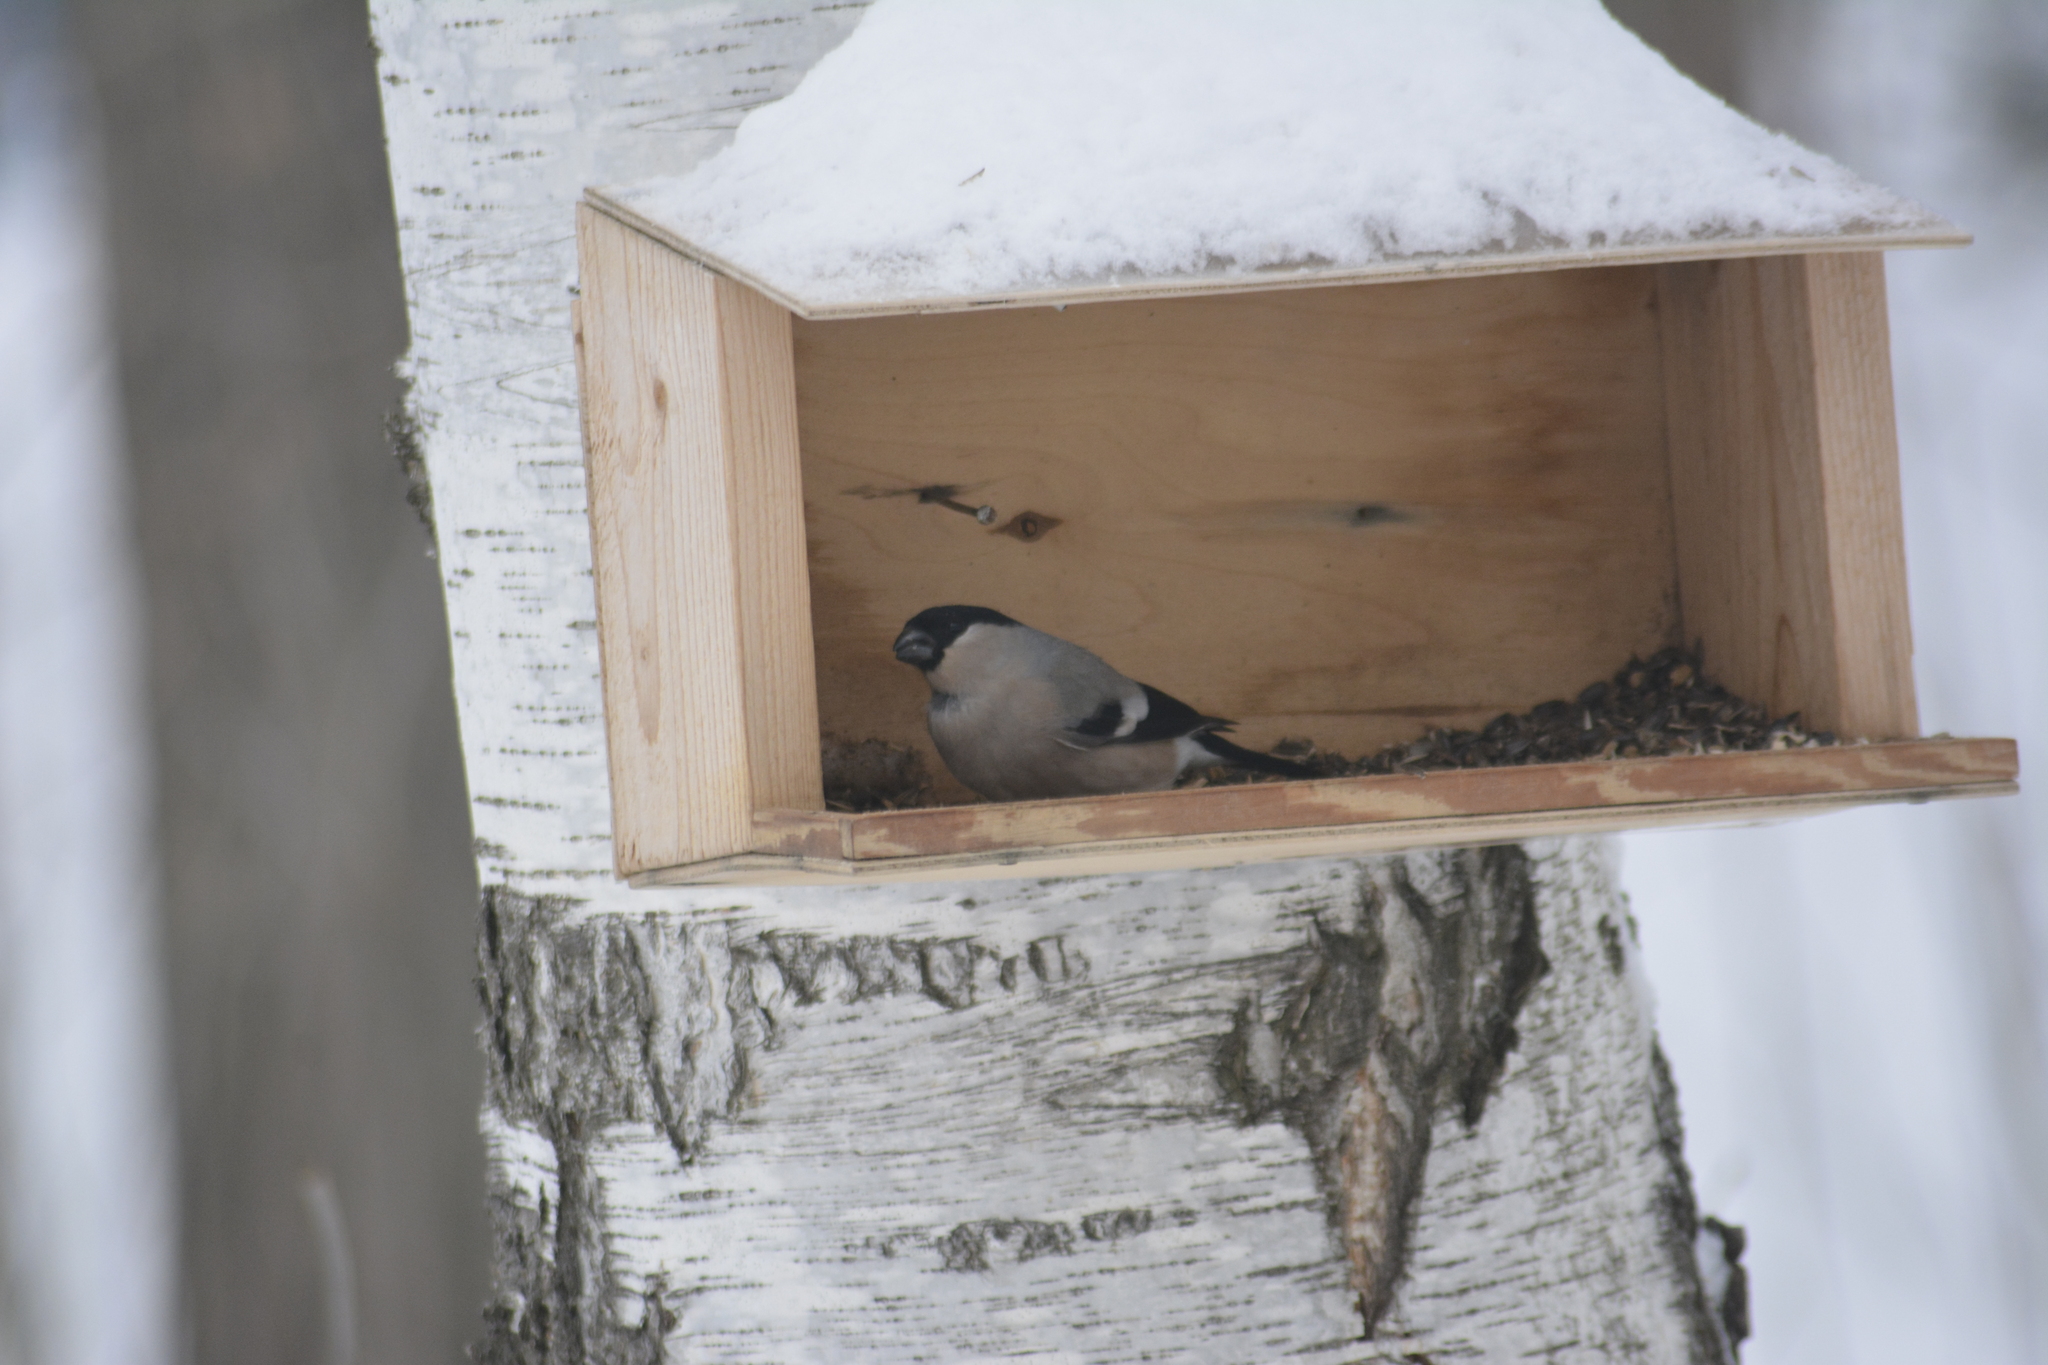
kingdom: Animalia
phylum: Chordata
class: Aves
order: Passeriformes
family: Fringillidae
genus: Pyrrhula
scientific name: Pyrrhula pyrrhula
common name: Eurasian bullfinch
